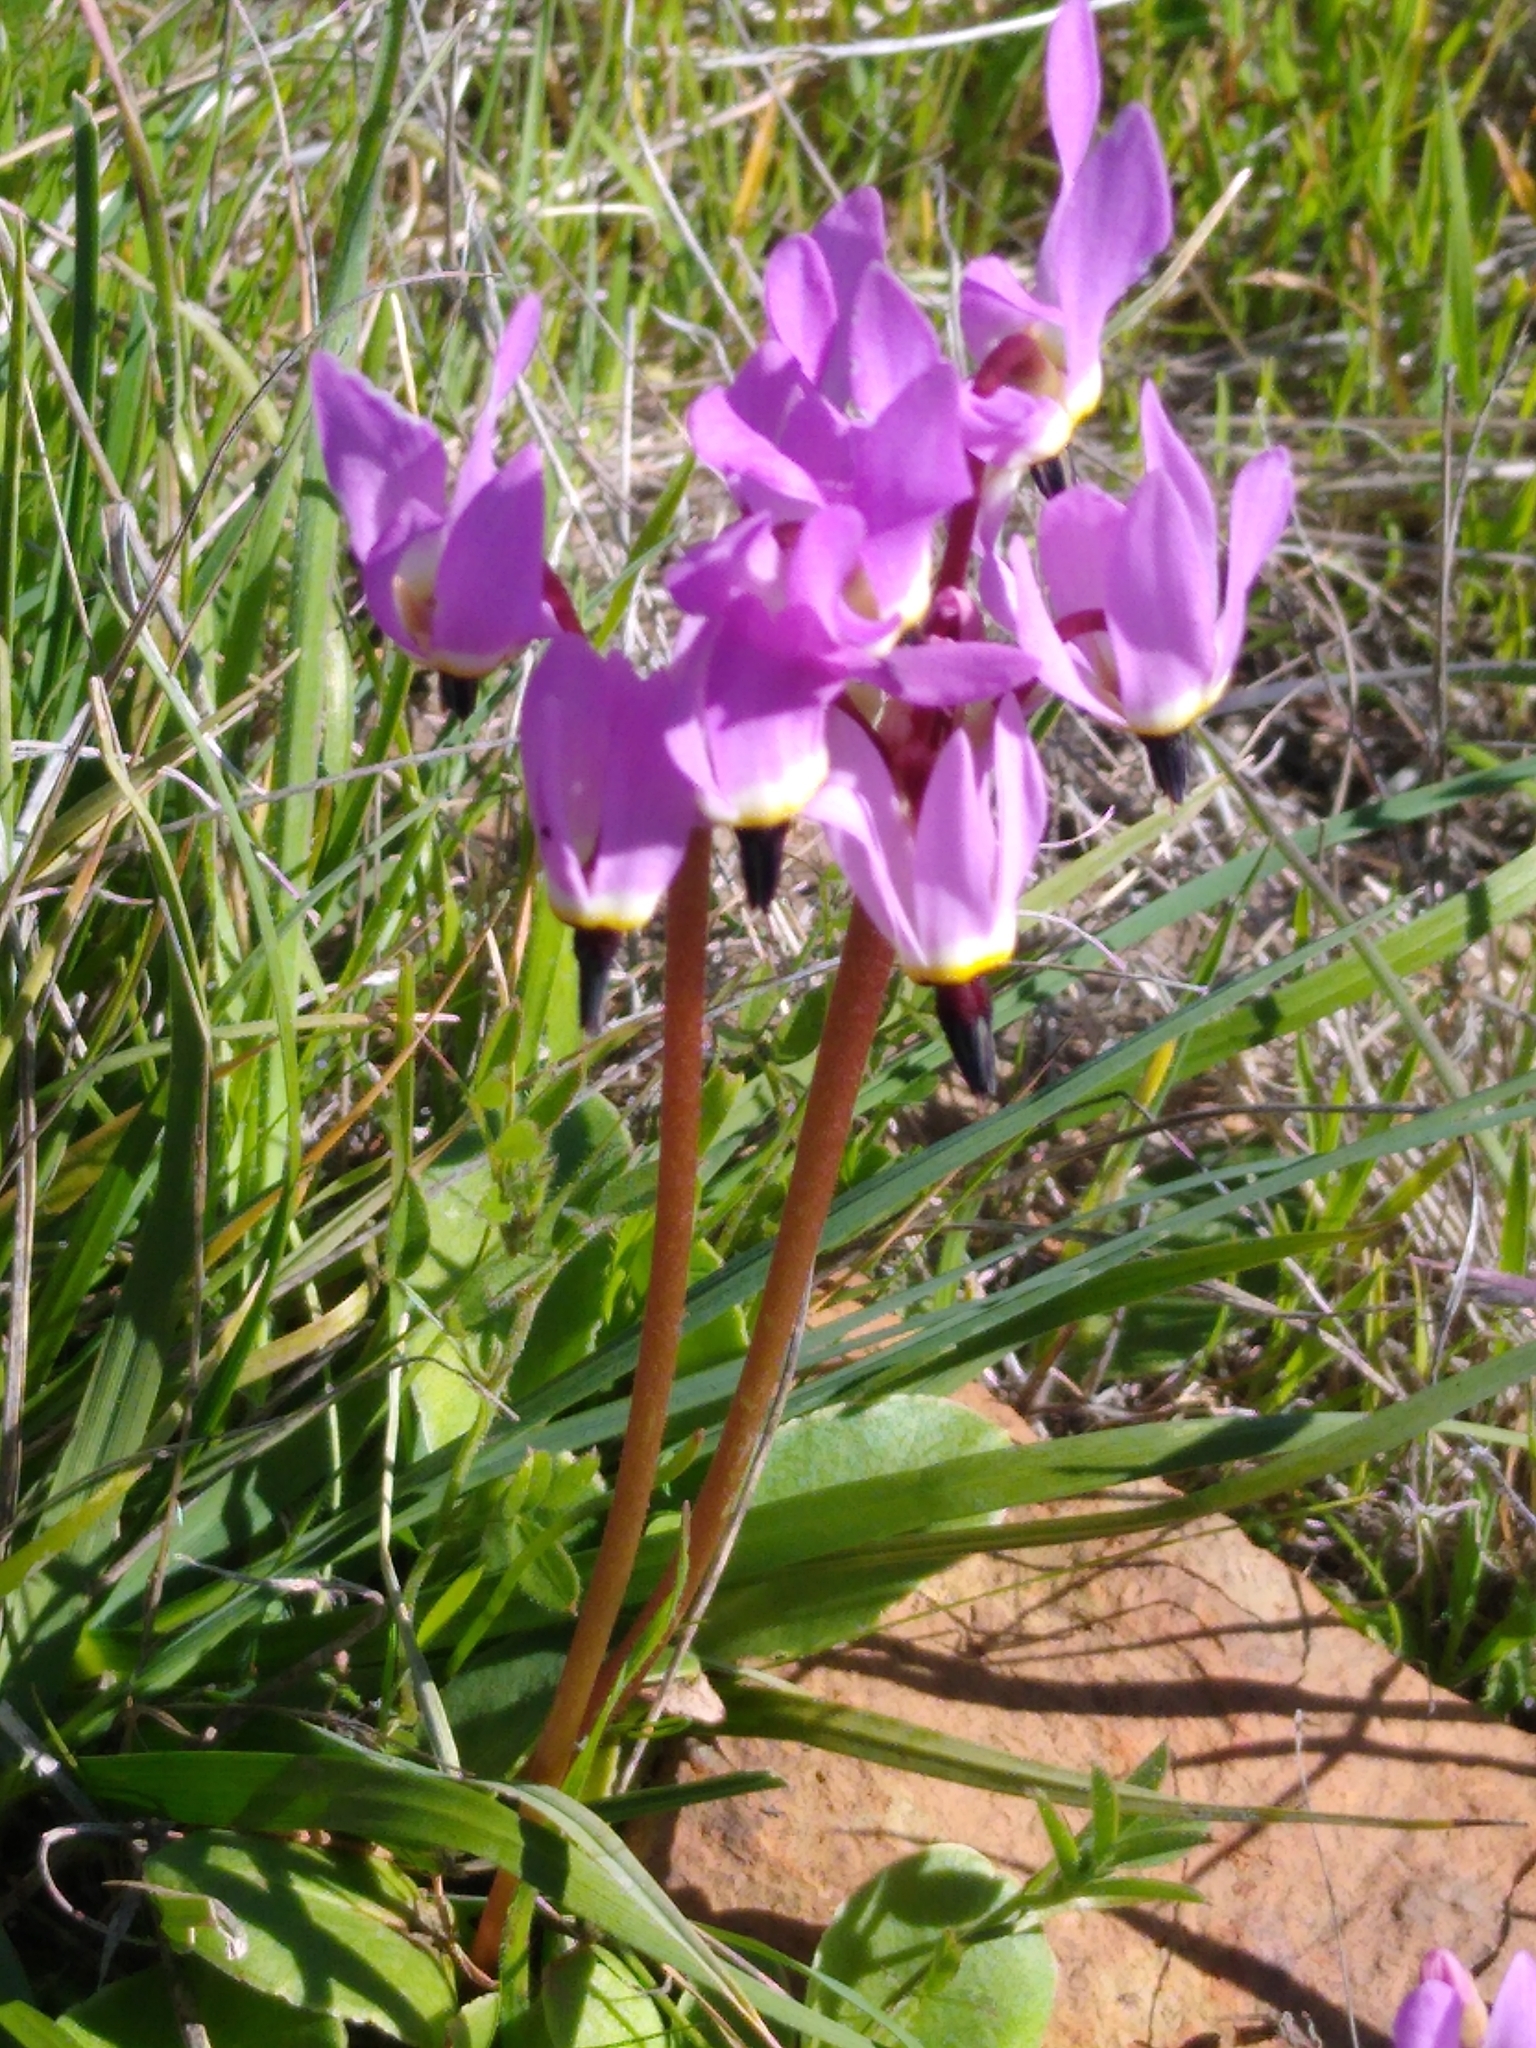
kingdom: Plantae
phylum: Tracheophyta
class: Magnoliopsida
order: Ericales
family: Primulaceae
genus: Dodecatheon
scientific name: Dodecatheon hendersonii
